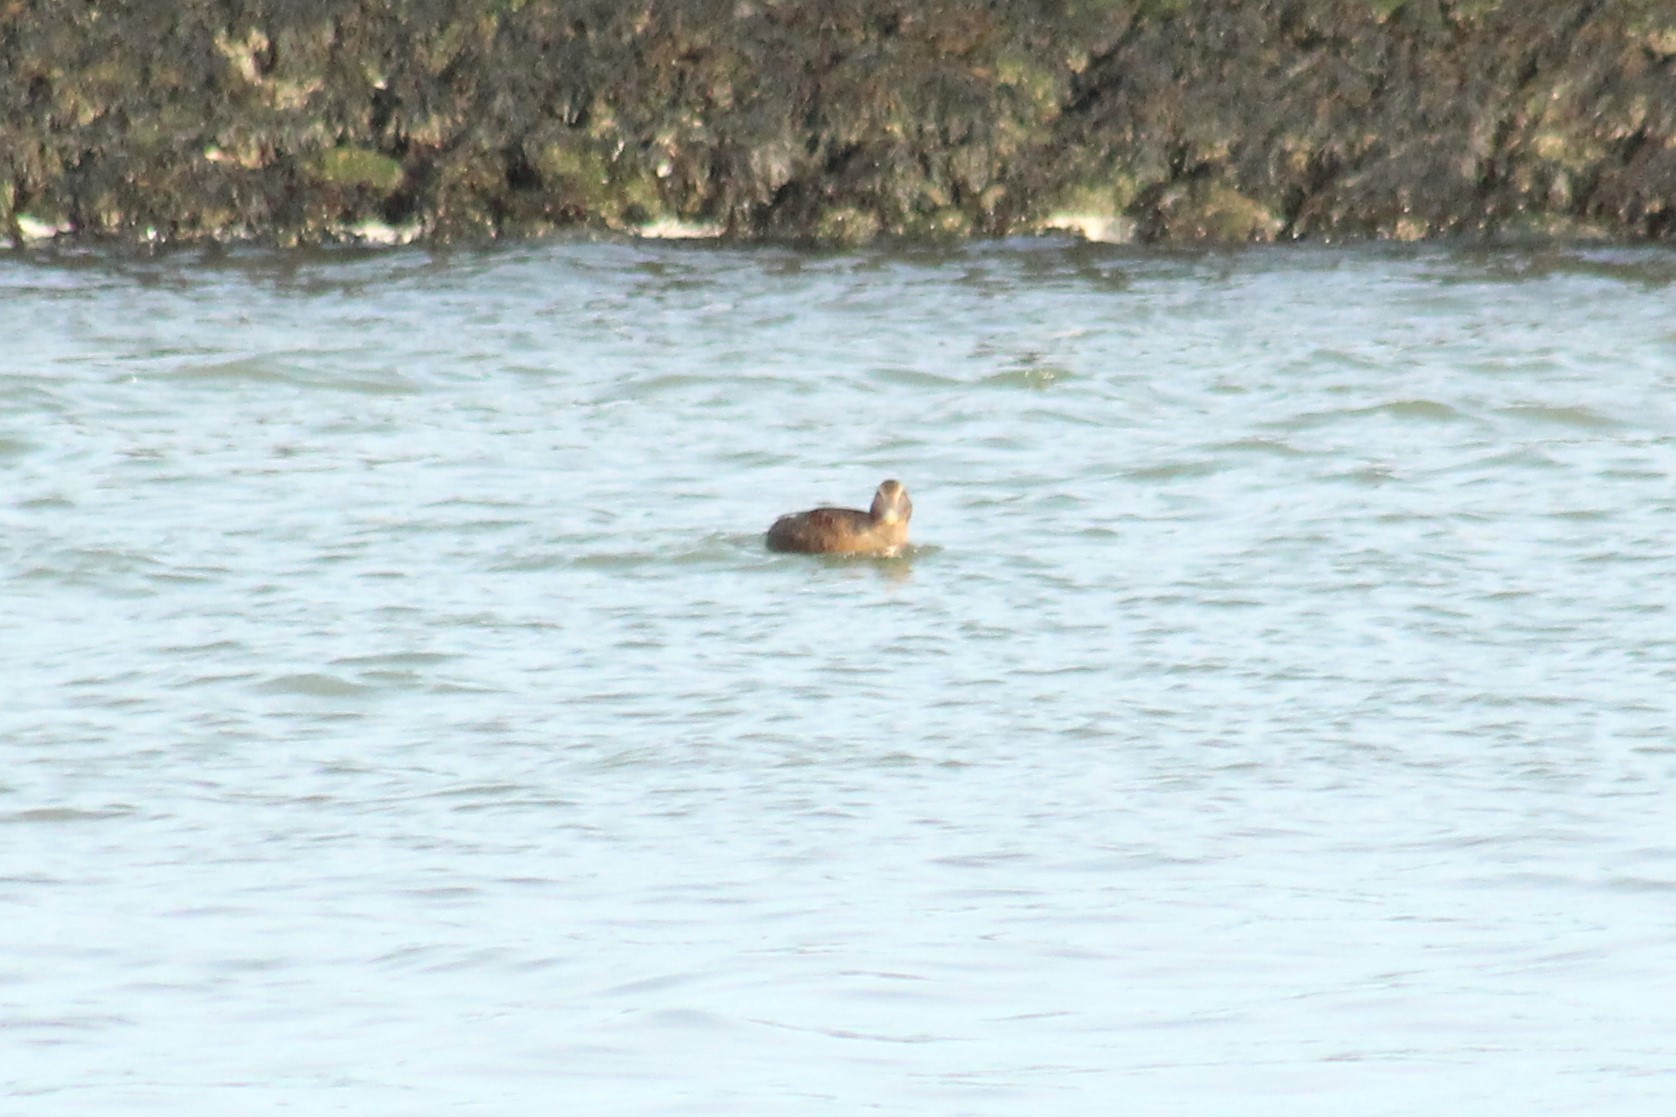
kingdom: Animalia
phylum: Chordata
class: Aves
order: Anseriformes
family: Anatidae
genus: Somateria
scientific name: Somateria mollissima
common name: Common eider
